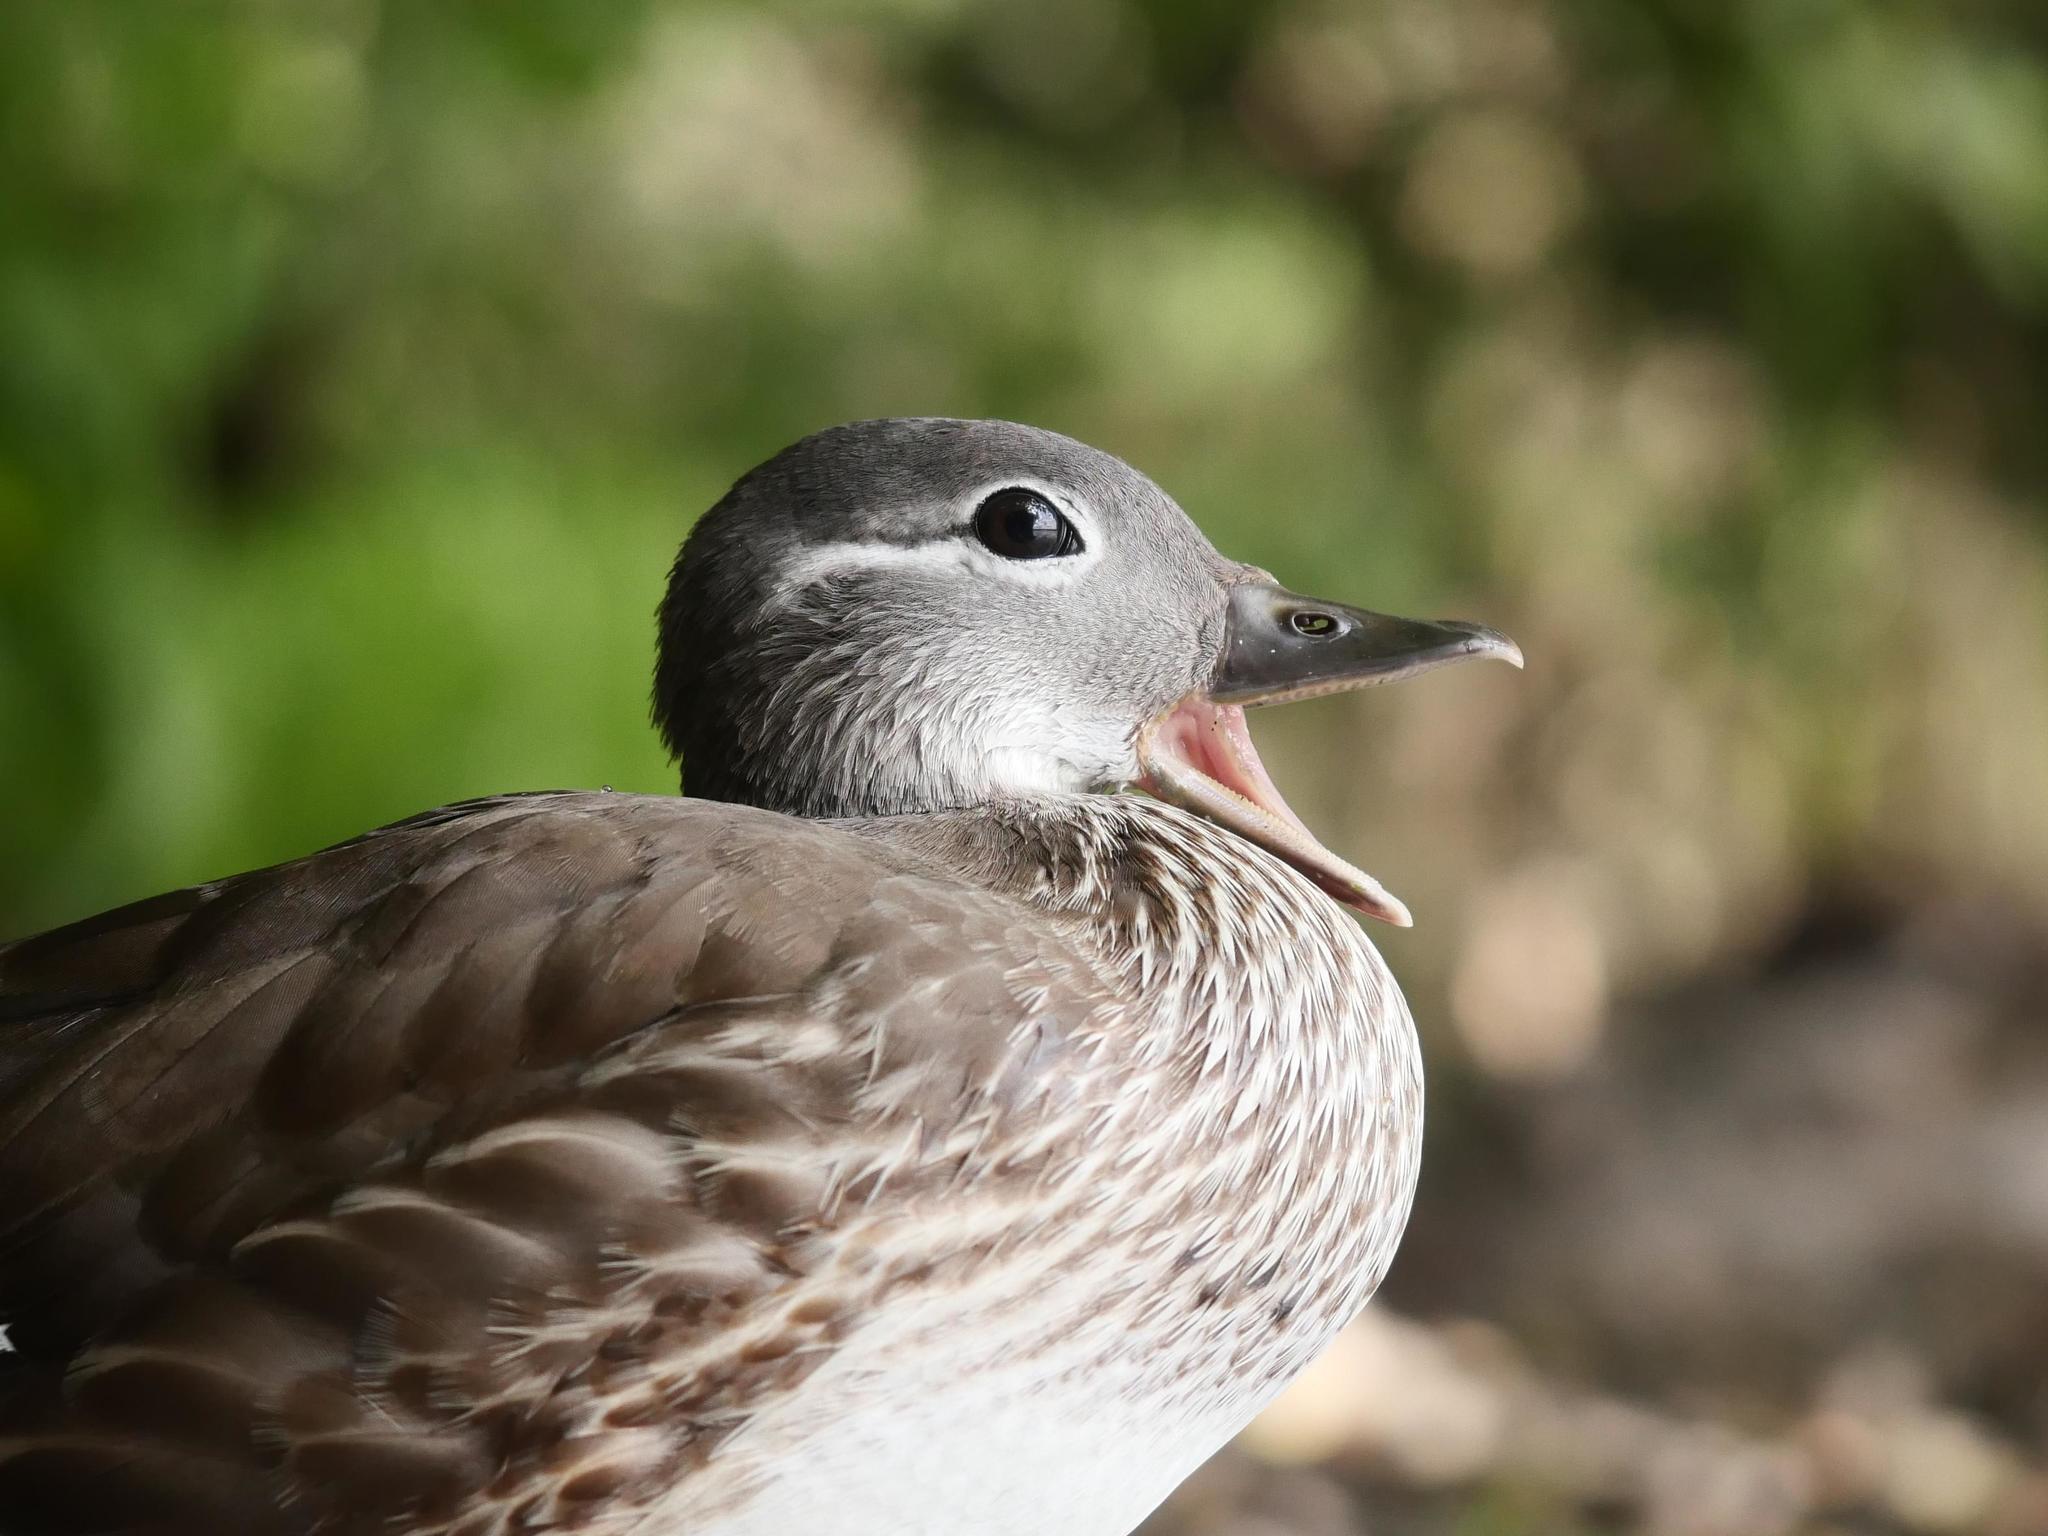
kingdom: Animalia
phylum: Chordata
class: Aves
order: Anseriformes
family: Anatidae
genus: Aix
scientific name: Aix galericulata
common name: Mandarin duck
